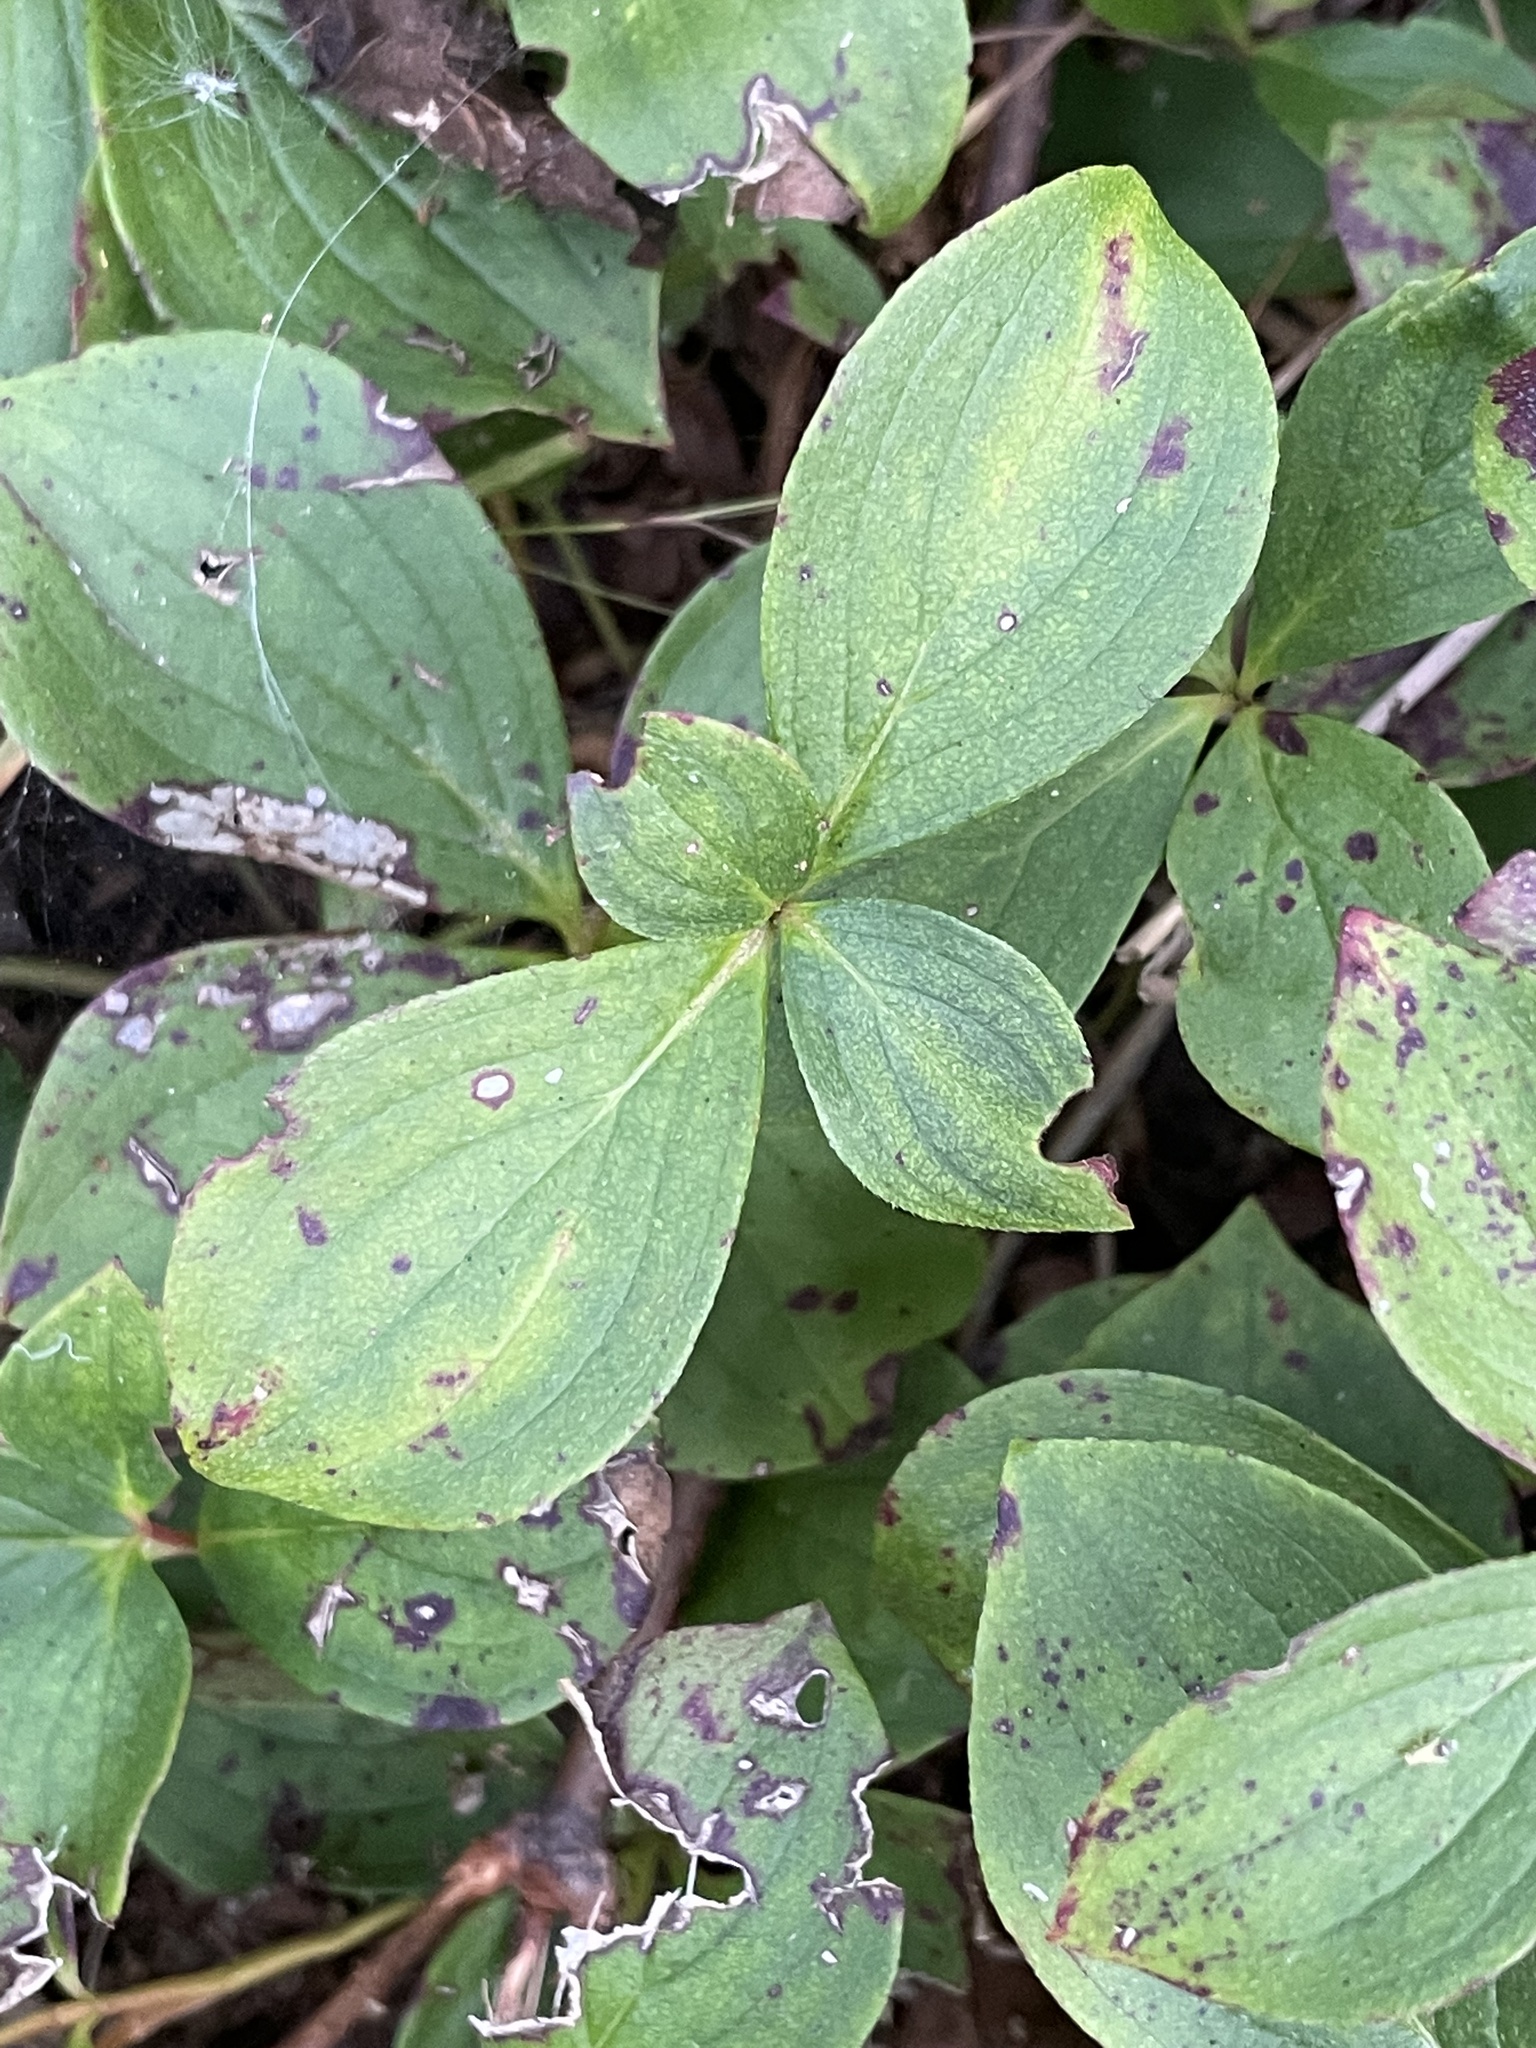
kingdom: Plantae
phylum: Tracheophyta
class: Magnoliopsida
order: Cornales
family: Cornaceae
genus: Cornus
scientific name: Cornus canadensis
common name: Creeping dogwood
